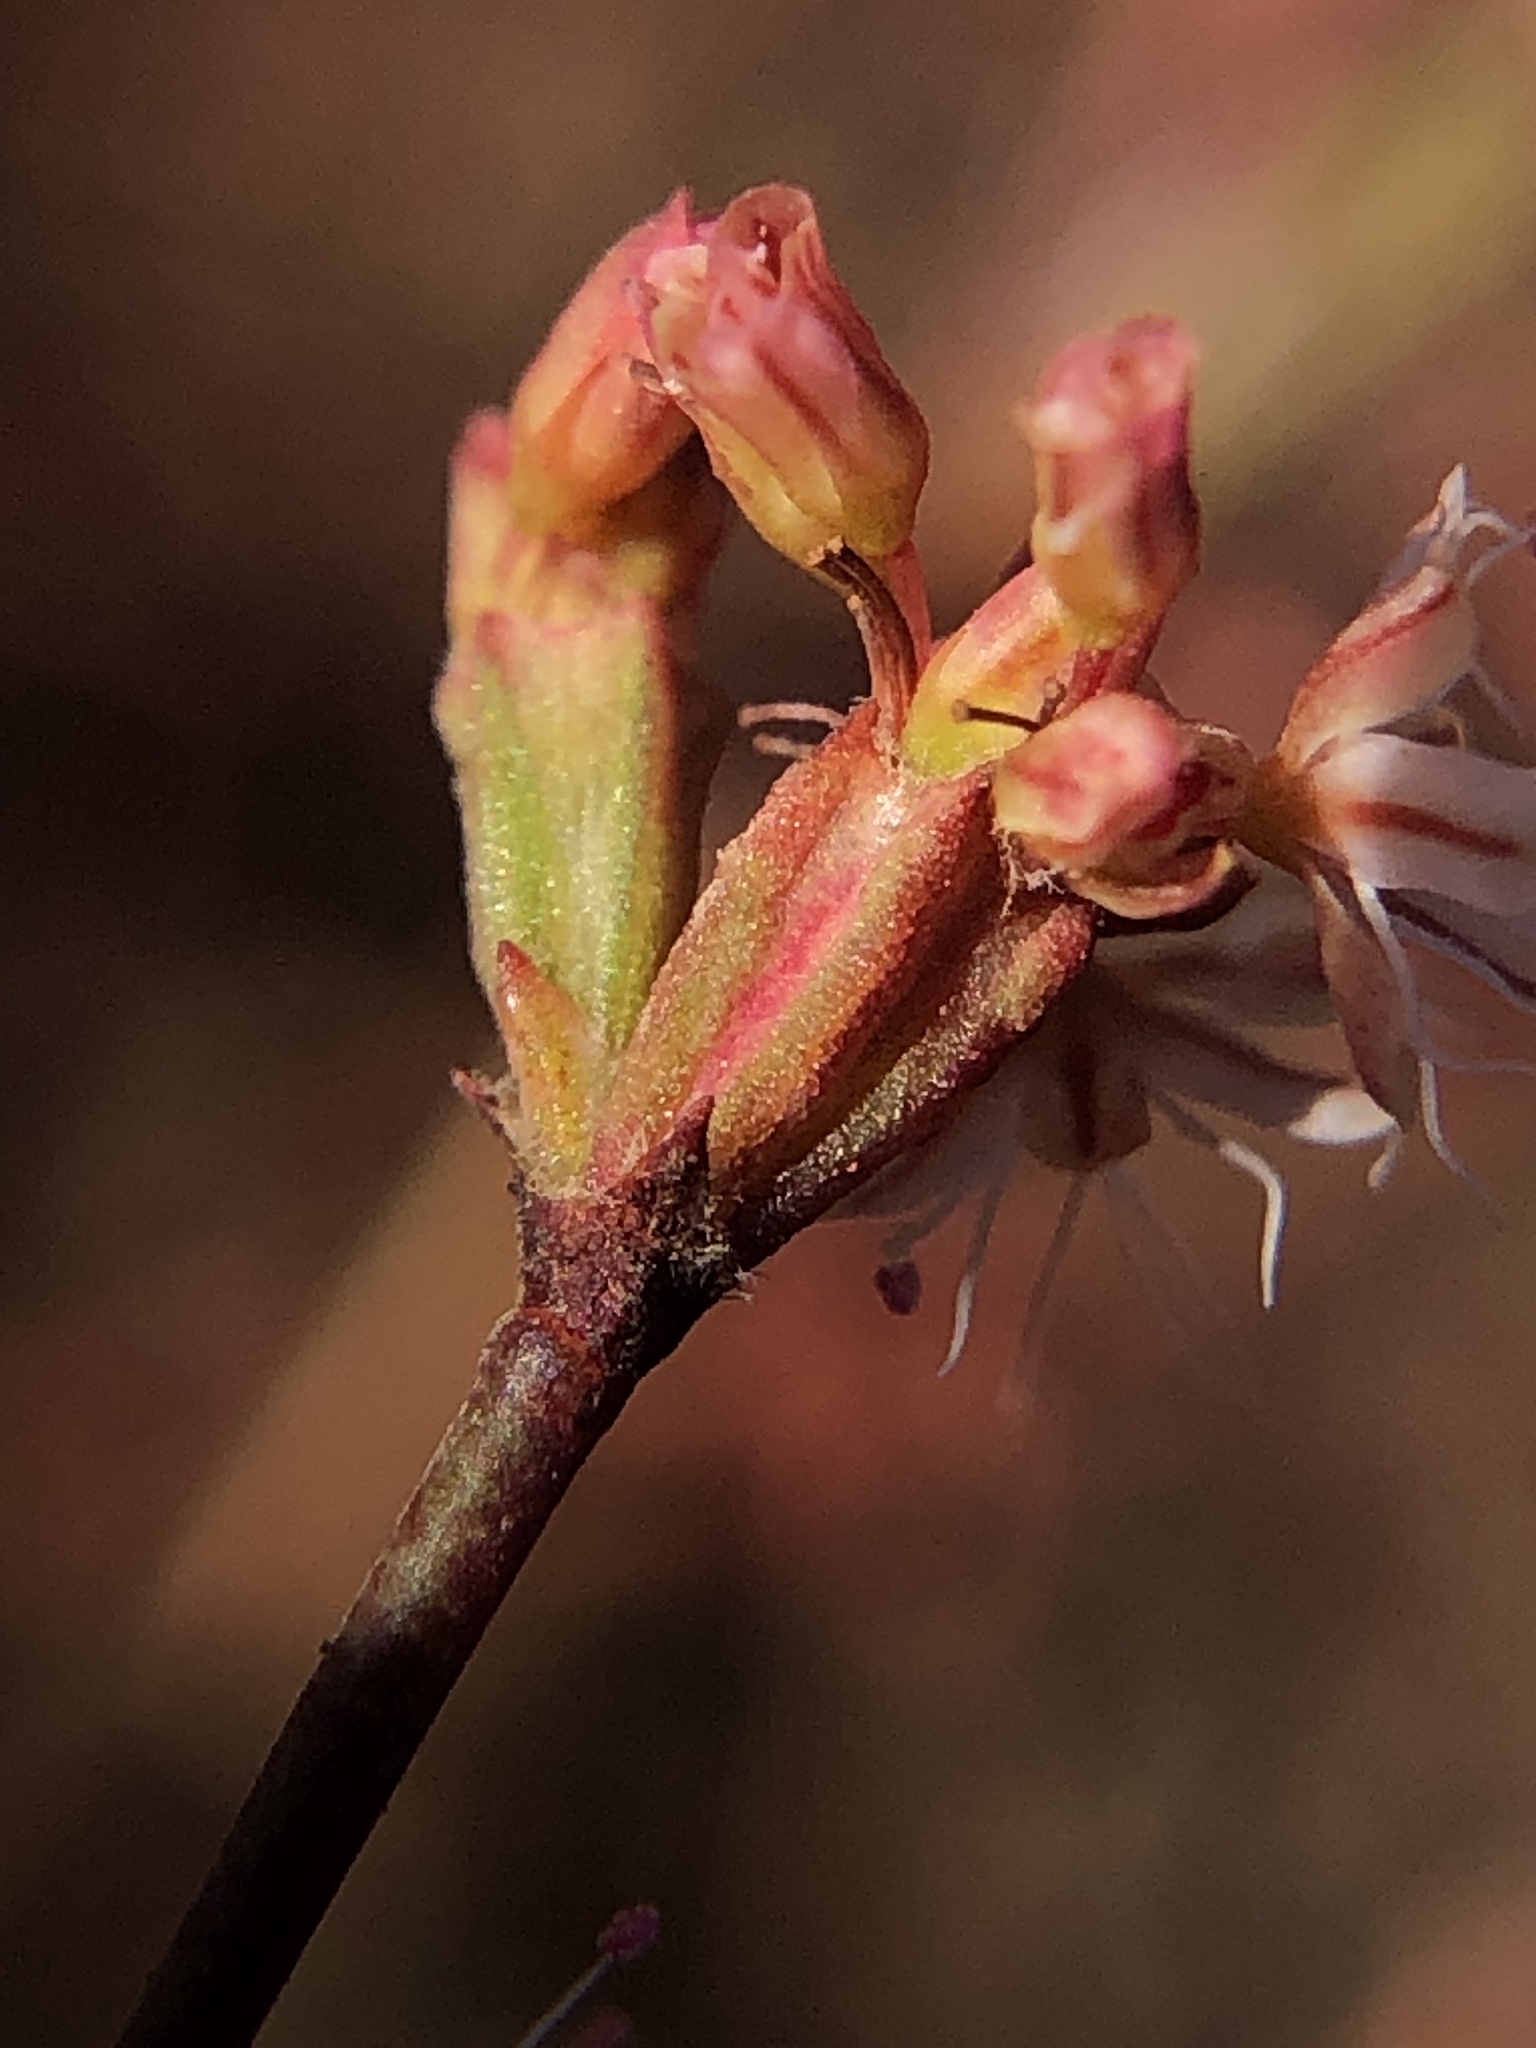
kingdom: Plantae
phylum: Tracheophyta
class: Magnoliopsida
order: Caryophyllales
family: Polygonaceae
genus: Eriogonum
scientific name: Eriogonum luteolum
